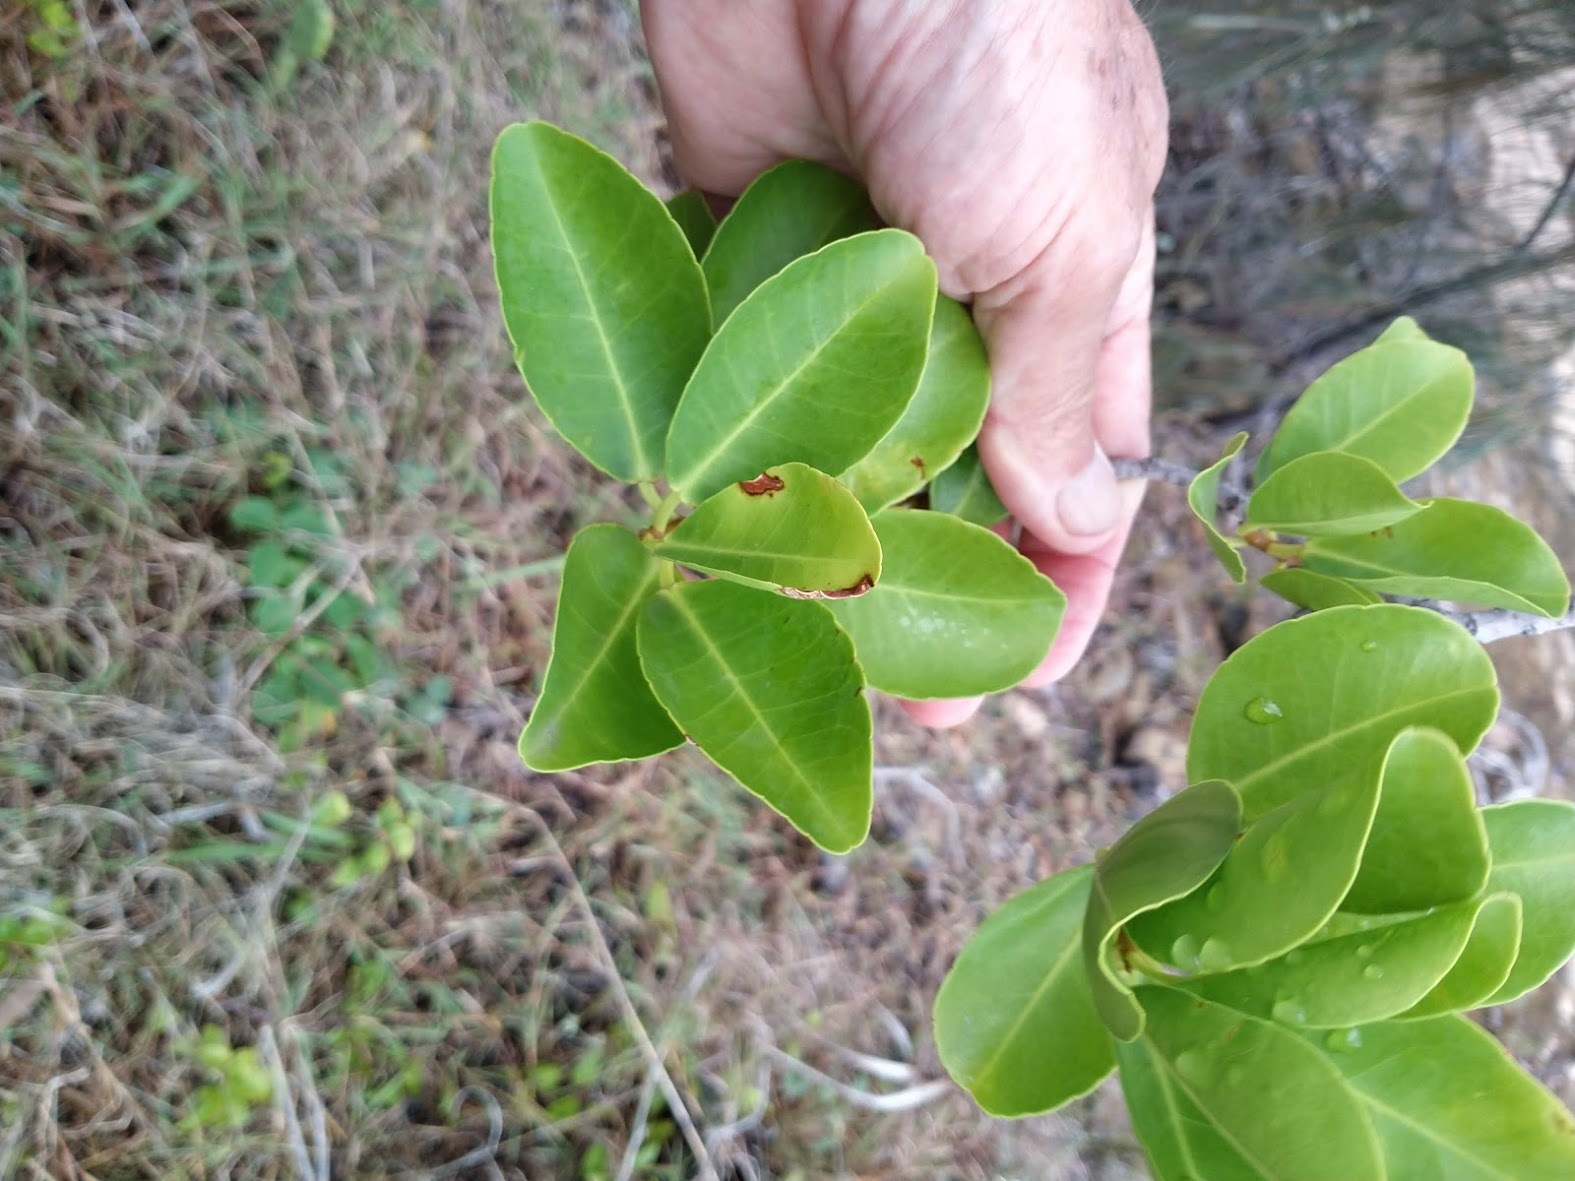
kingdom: Plantae
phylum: Tracheophyta
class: Magnoliopsida
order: Malpighiales
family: Euphorbiaceae
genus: Excoecaria
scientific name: Excoecaria agallocha
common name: River poisontree
